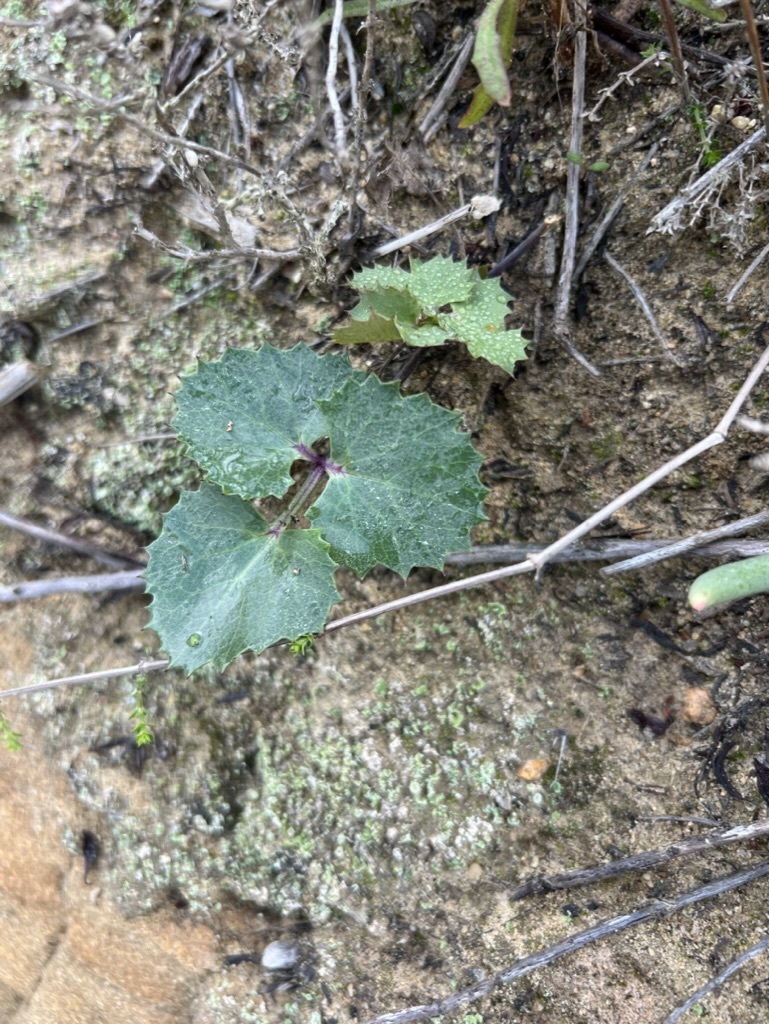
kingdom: Plantae
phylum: Tracheophyta
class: Magnoliopsida
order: Apiales
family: Apiaceae
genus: Lomatium
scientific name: Lomatium lucidum
